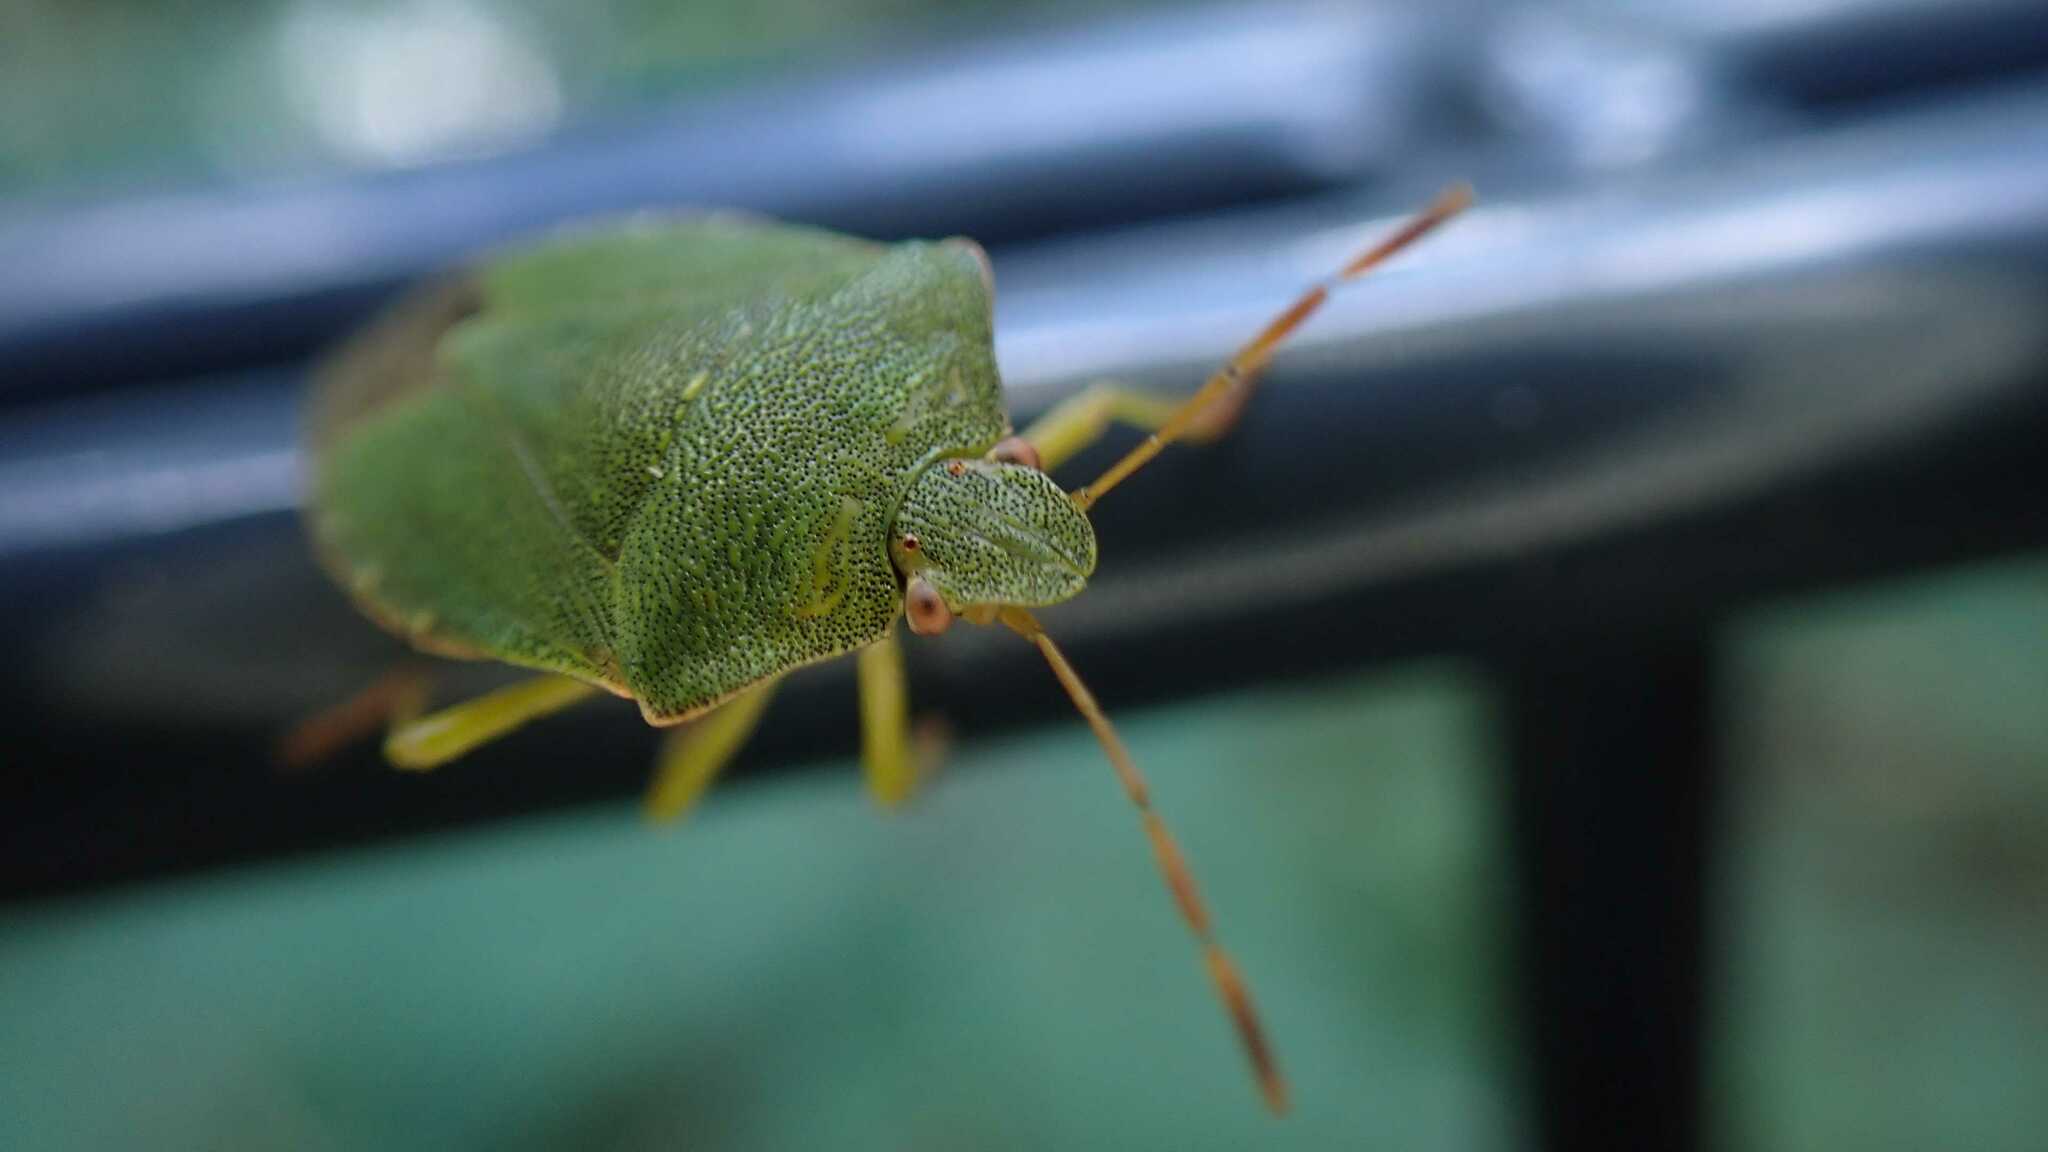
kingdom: Animalia
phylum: Arthropoda
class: Insecta
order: Hemiptera
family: Pentatomidae
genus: Palomena
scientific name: Palomena prasina
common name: Green shieldbug
